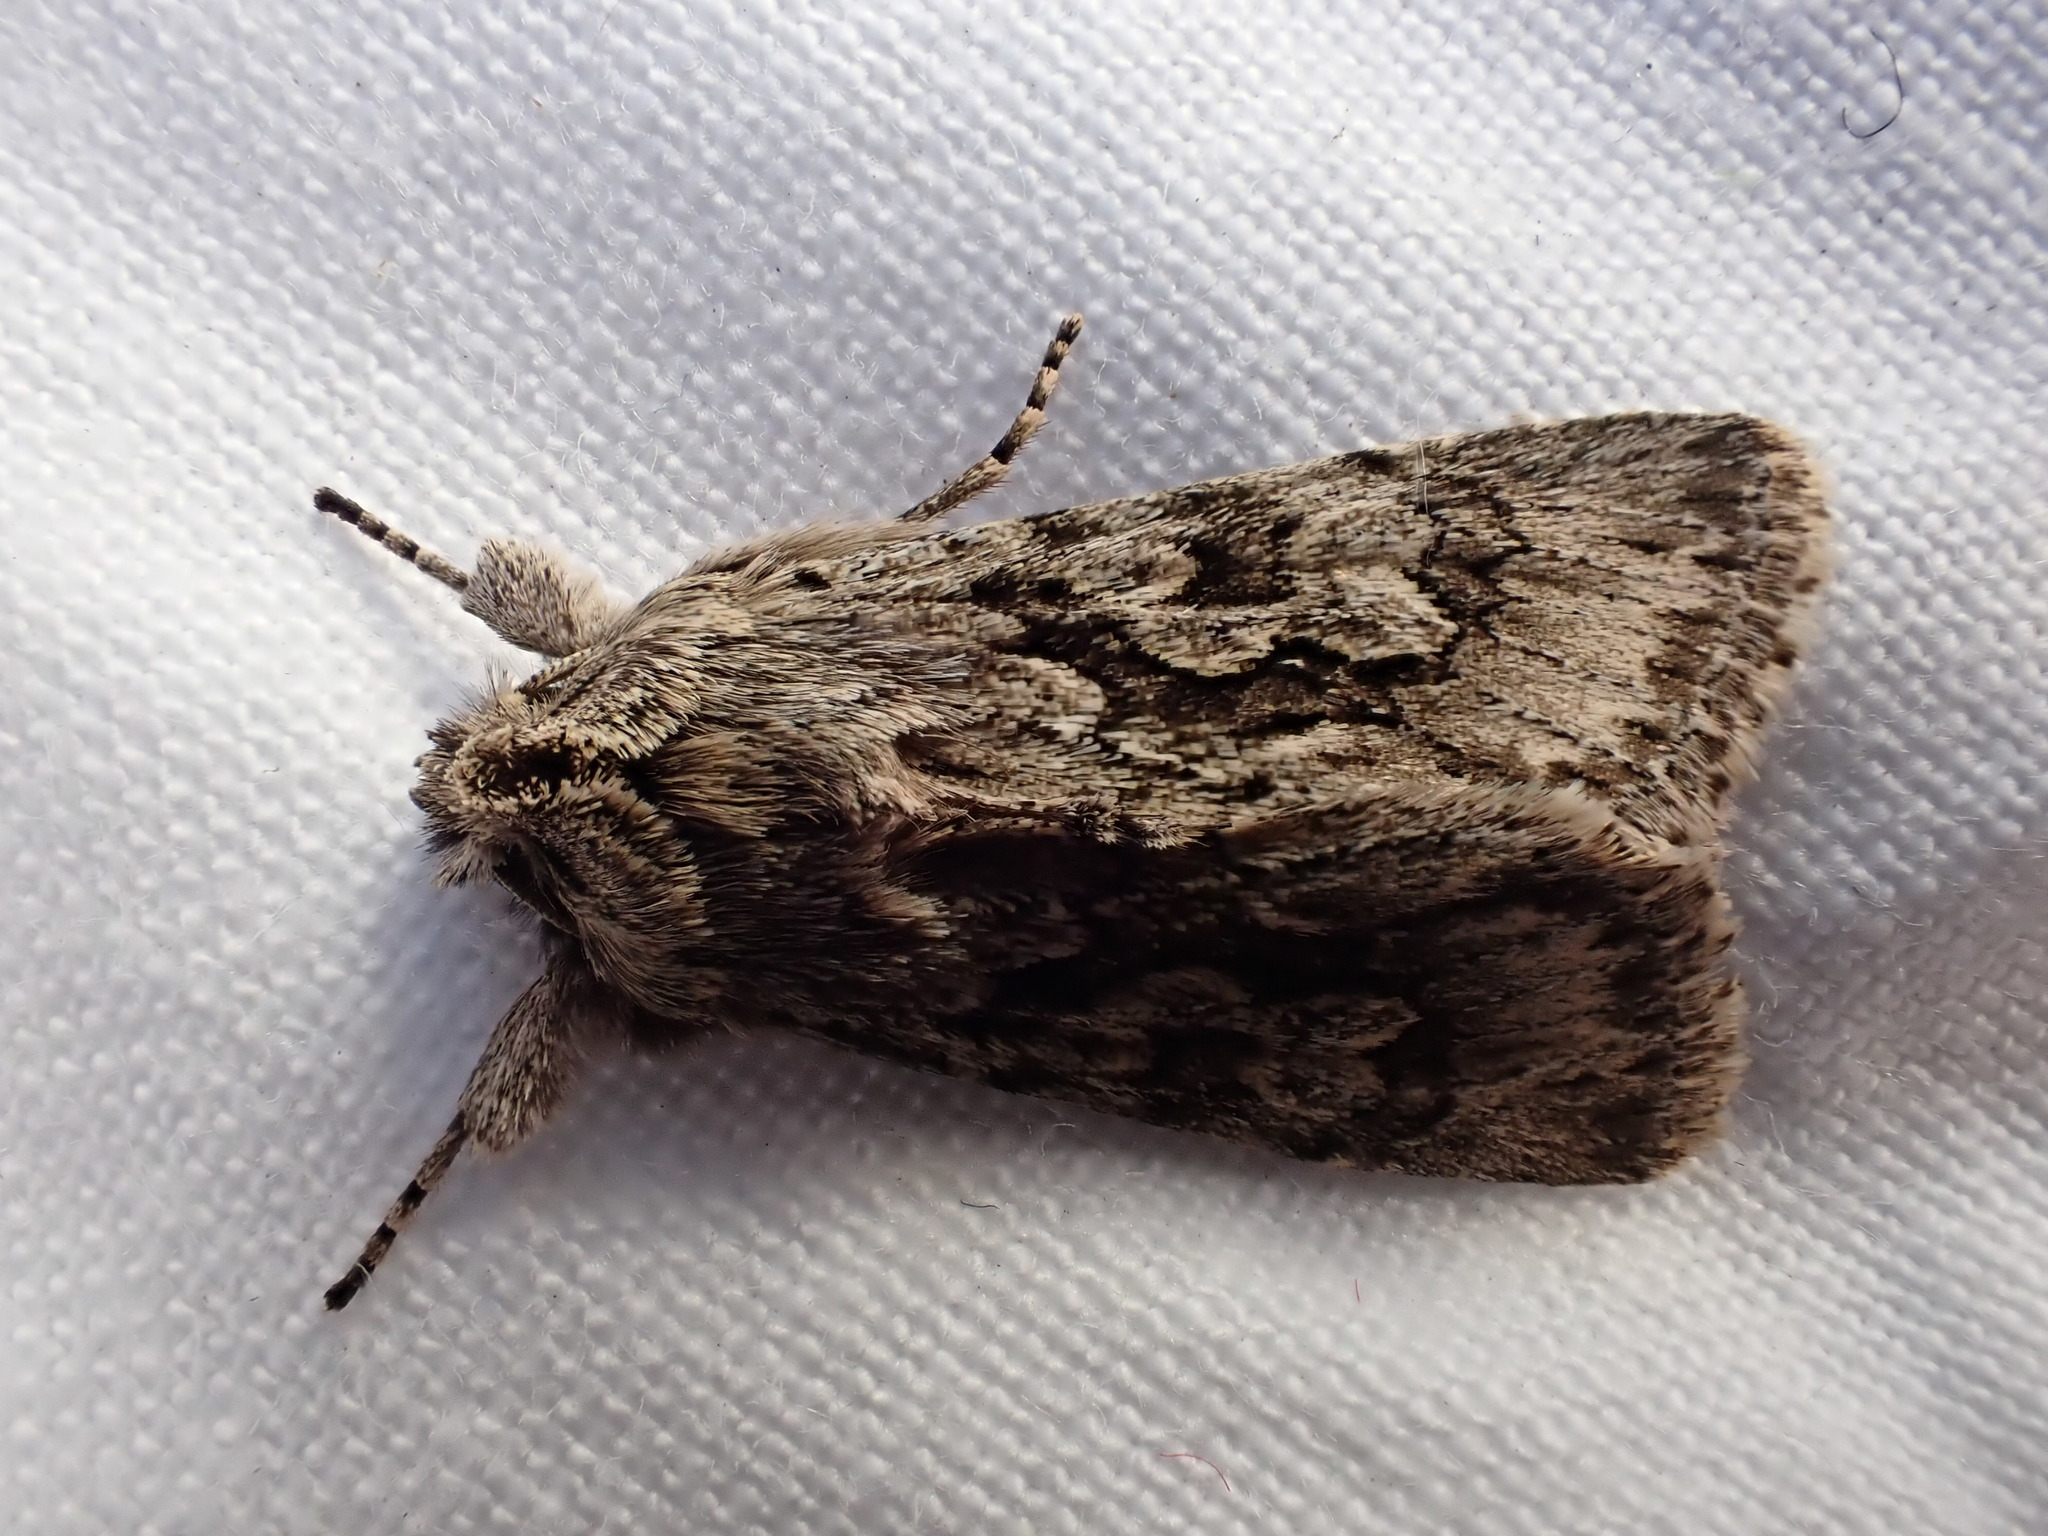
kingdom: Animalia
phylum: Arthropoda
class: Insecta
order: Lepidoptera
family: Noctuidae
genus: Xylocampa
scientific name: Xylocampa areola
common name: Early grey
